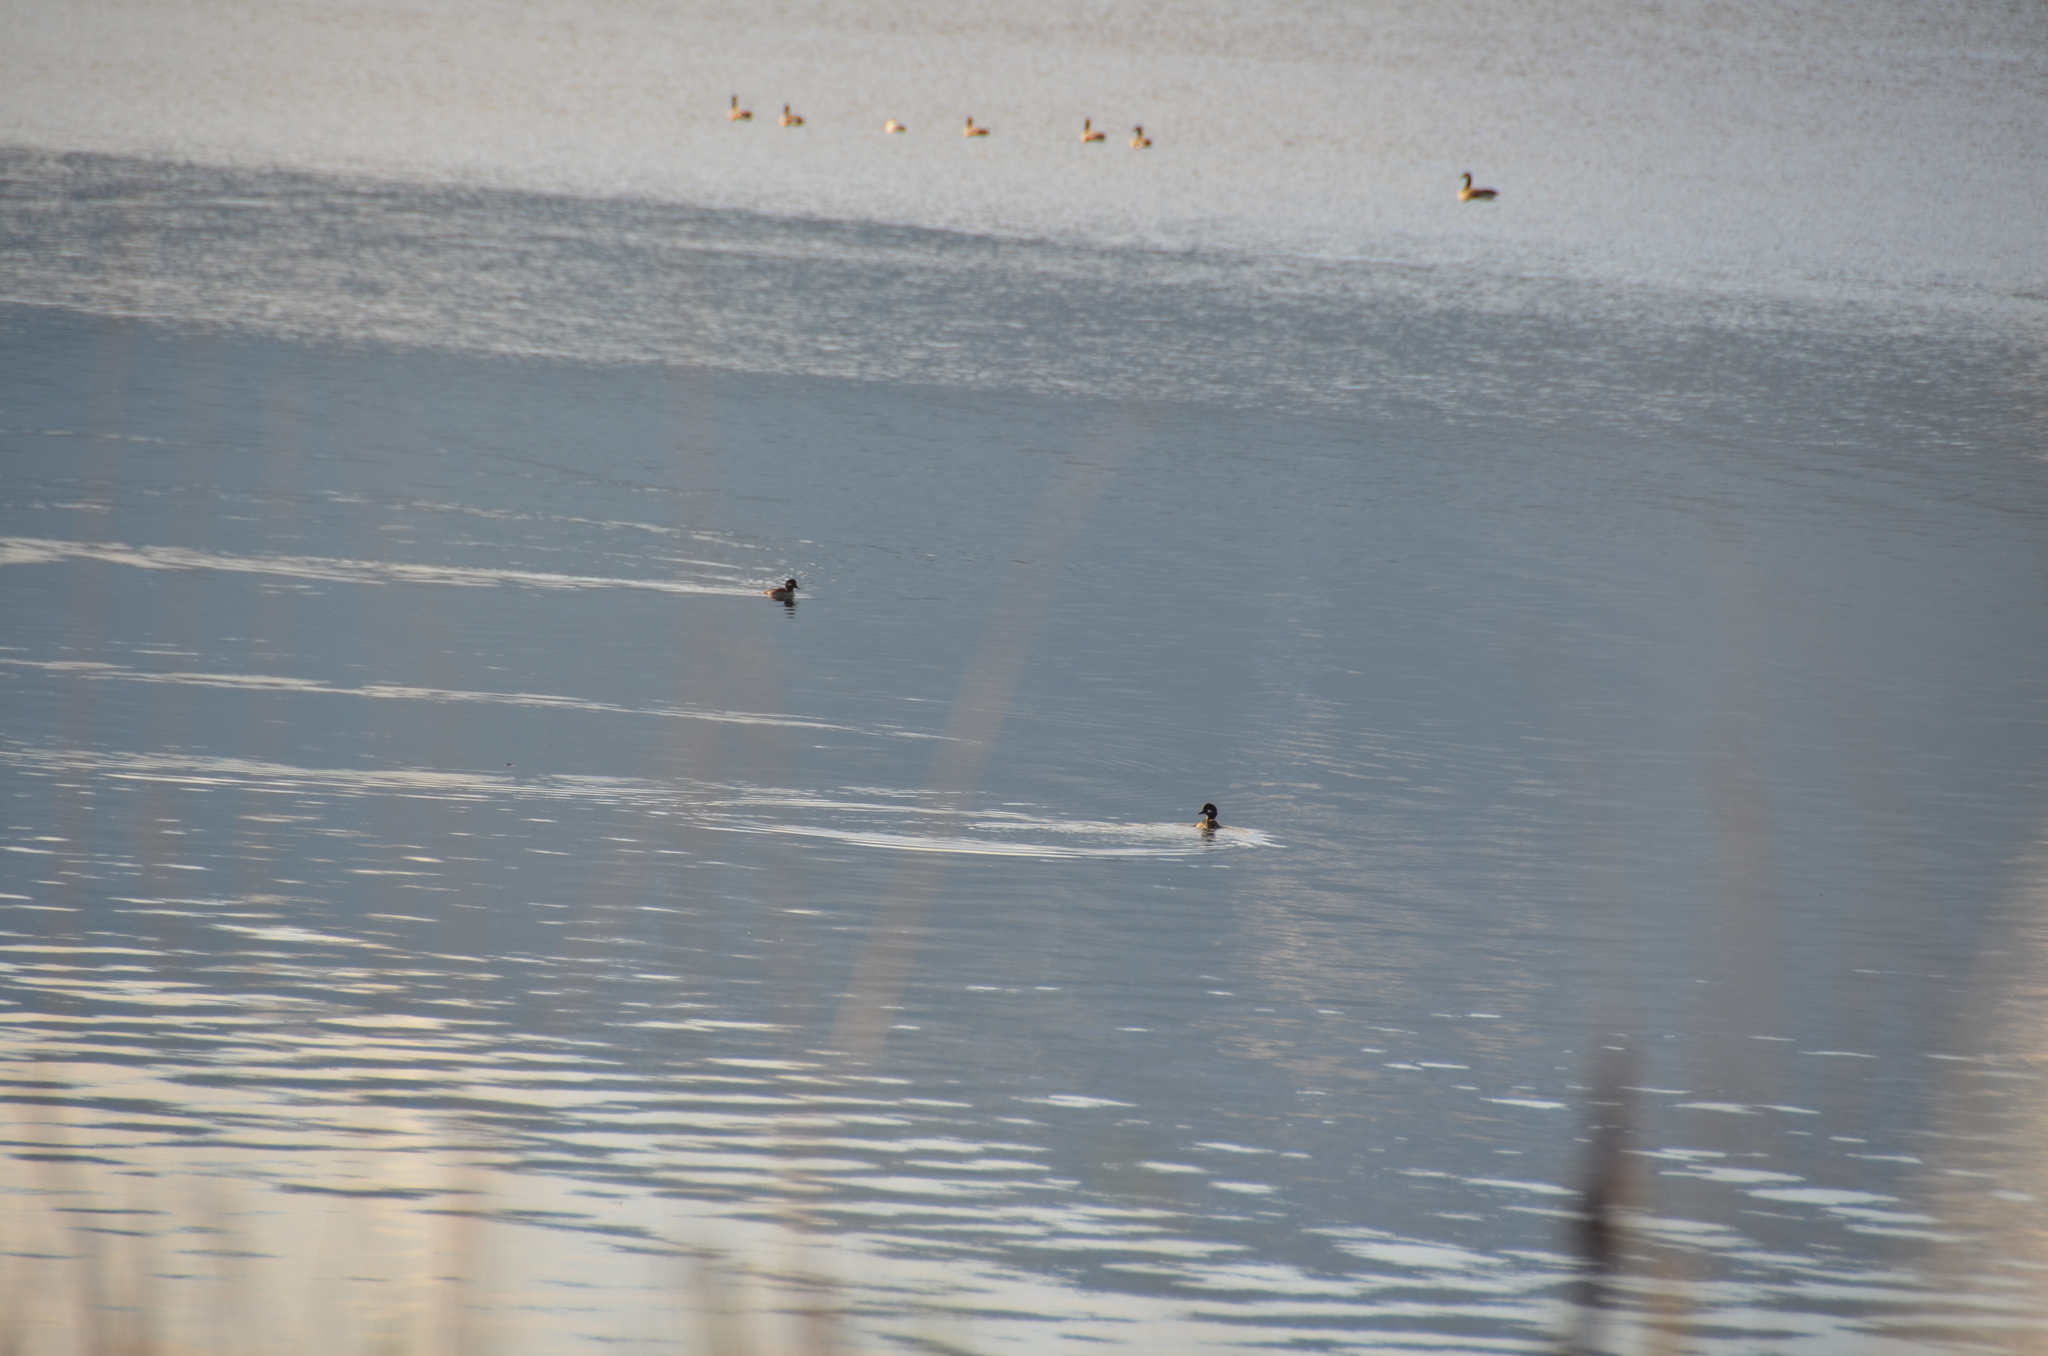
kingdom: Animalia
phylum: Chordata
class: Aves
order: Anseriformes
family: Anatidae
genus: Bucephala
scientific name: Bucephala albeola
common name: Bufflehead
